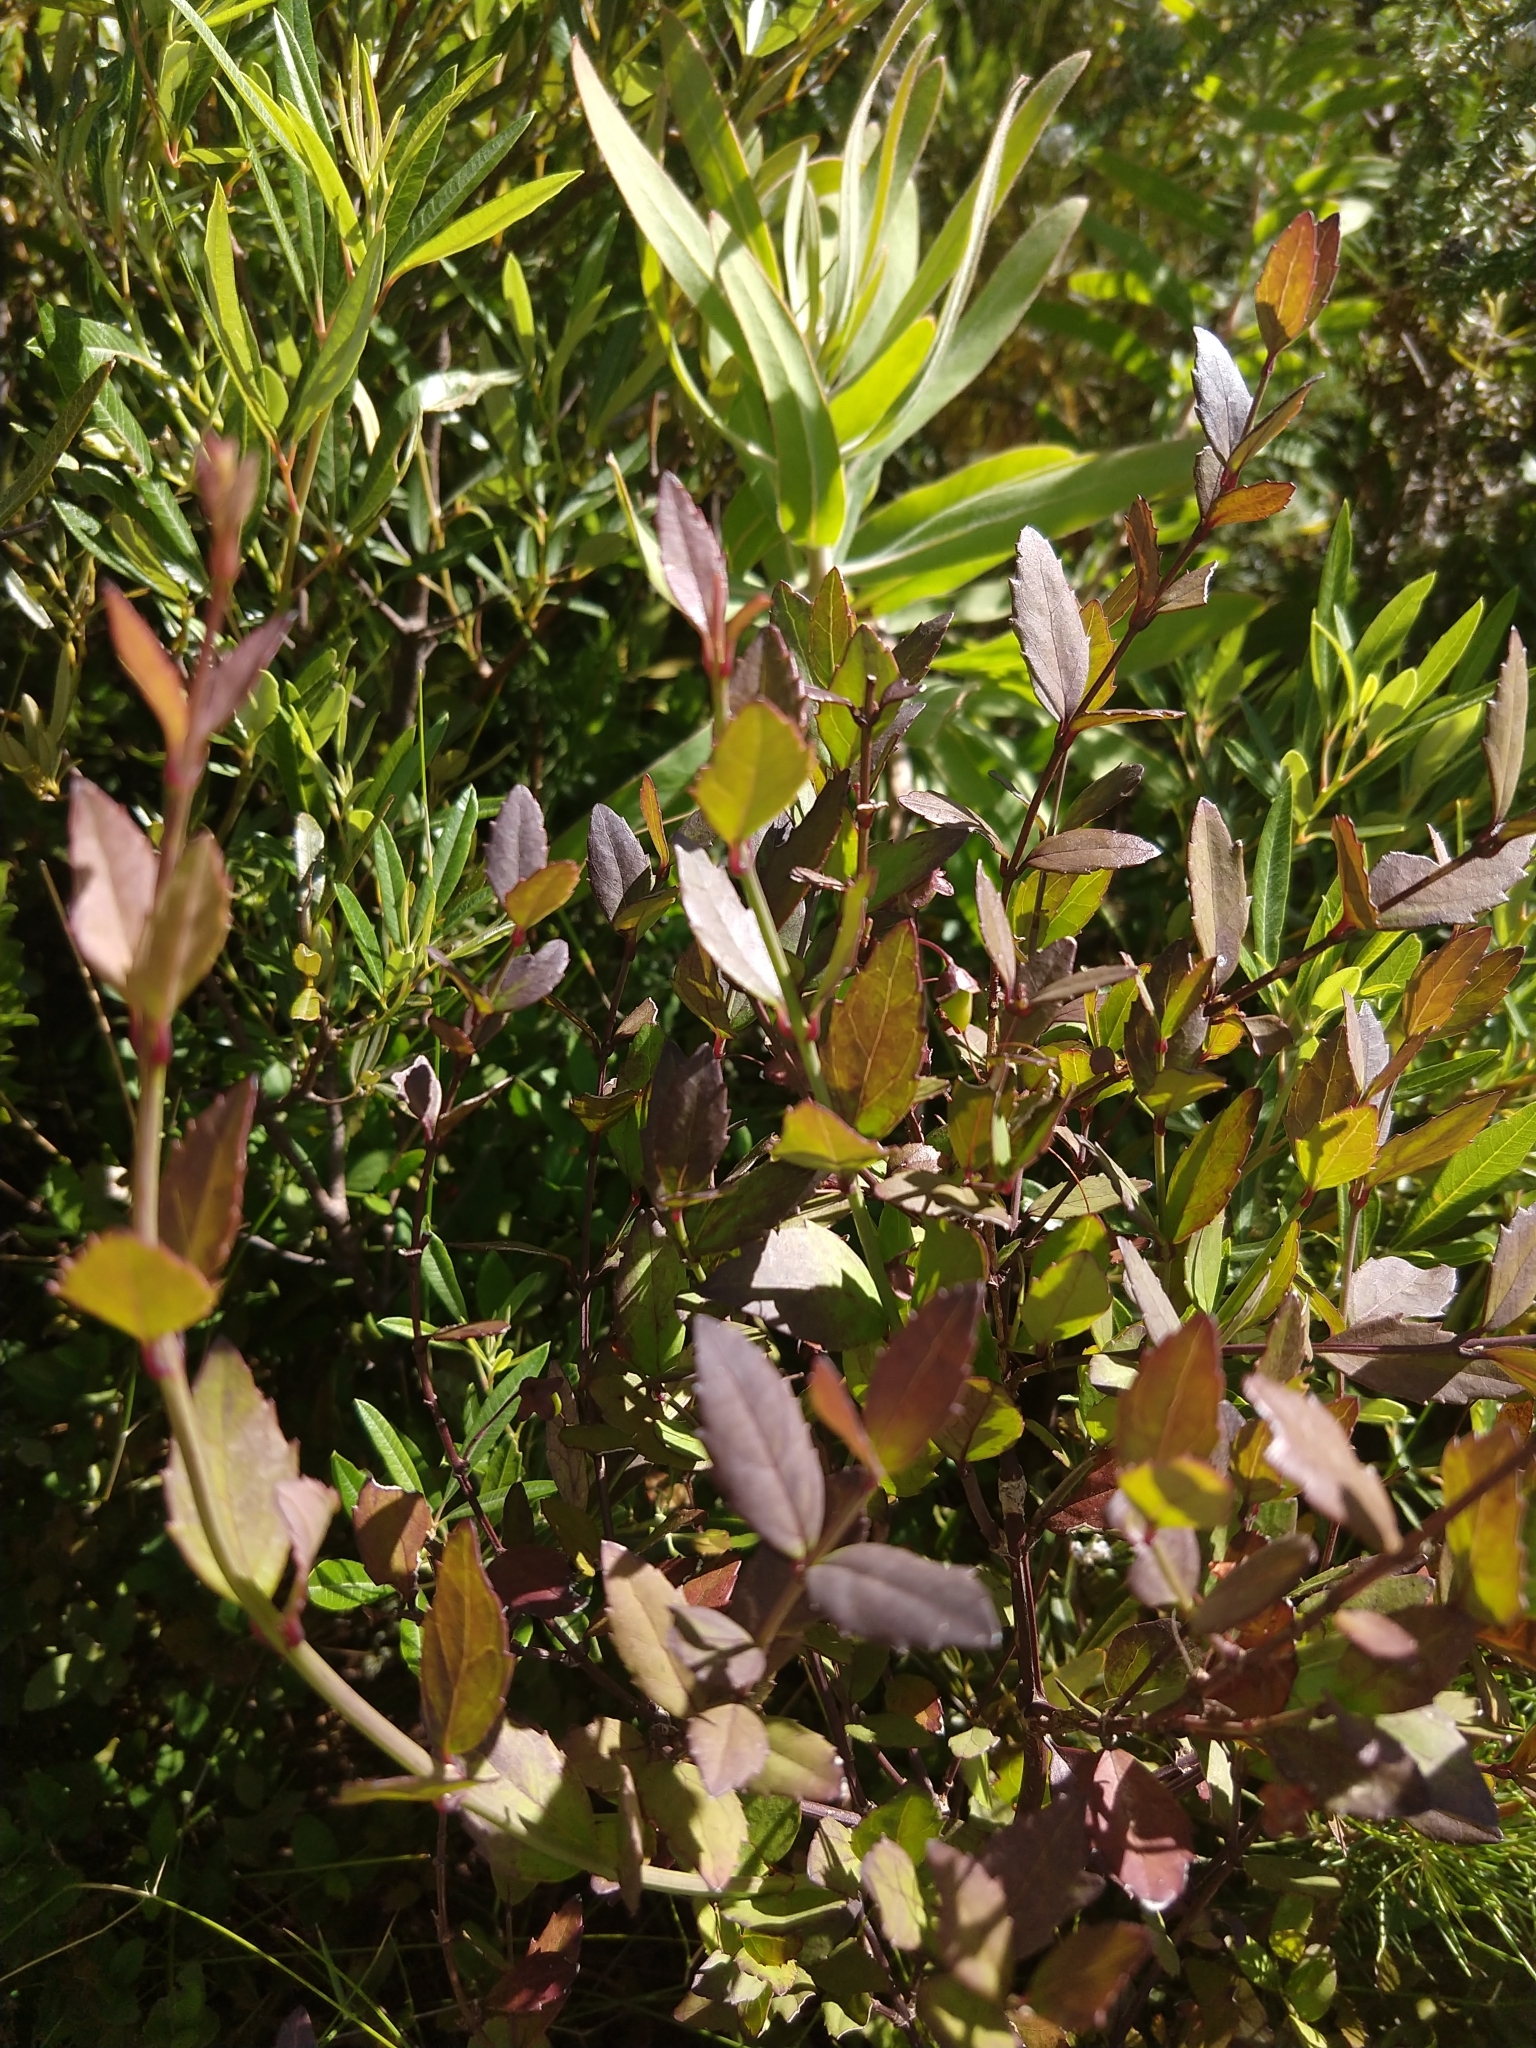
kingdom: Plantae
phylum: Tracheophyta
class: Magnoliopsida
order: Lamiales
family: Stilbaceae
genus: Halleria
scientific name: Halleria elliptica
